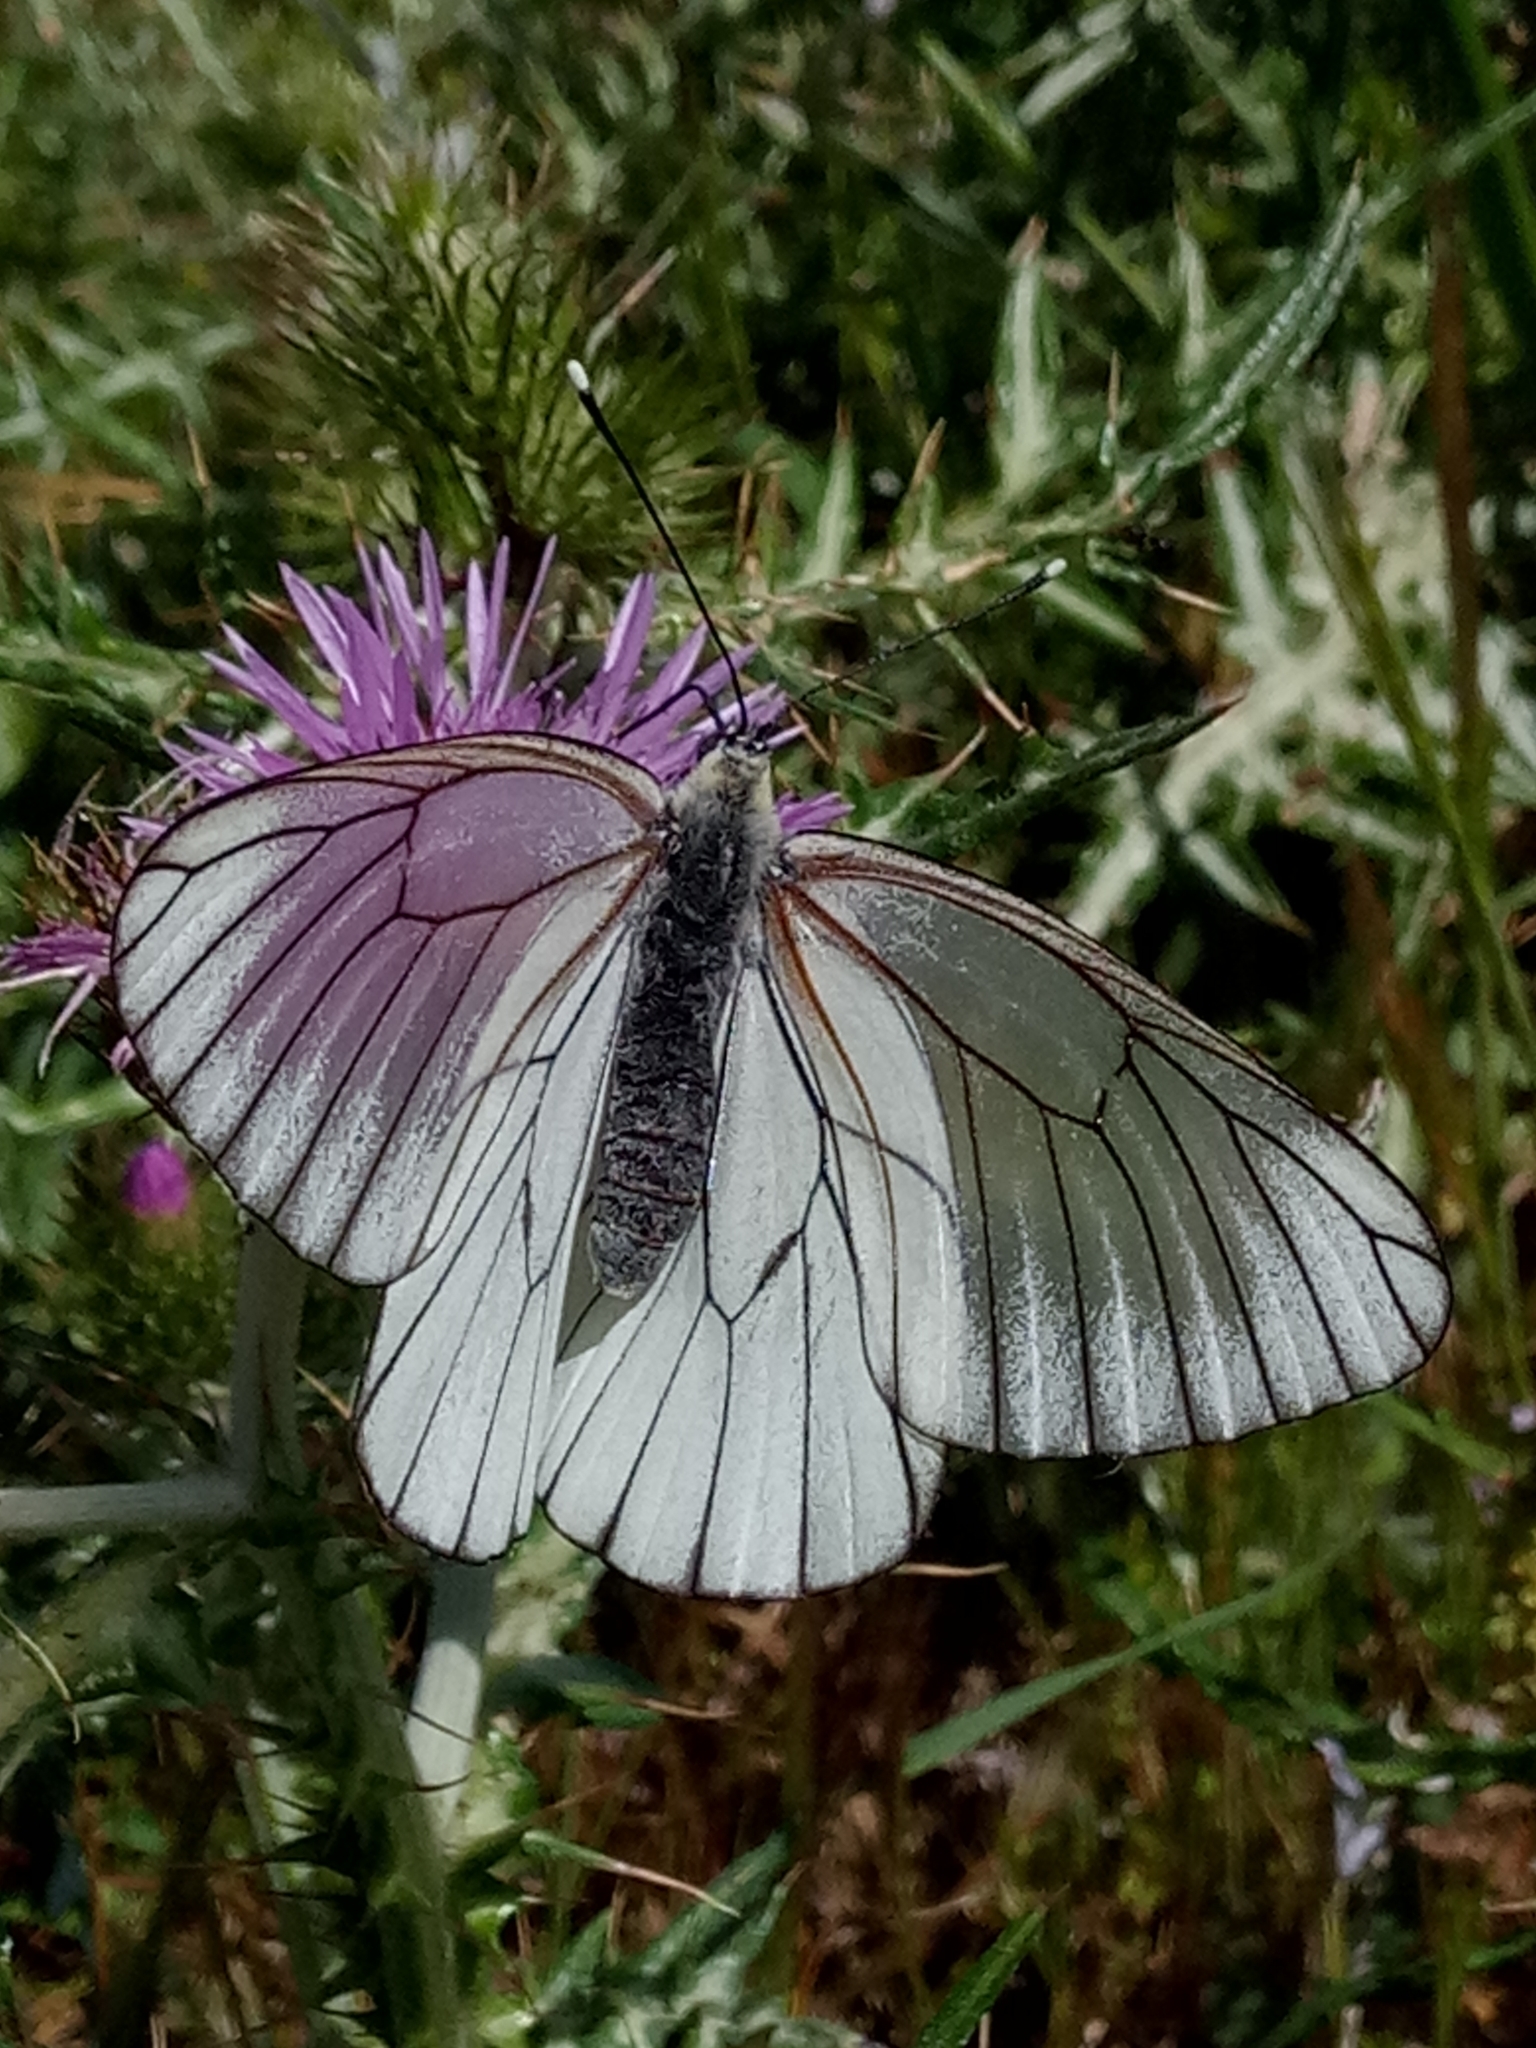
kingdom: Animalia
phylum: Arthropoda
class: Insecta
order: Lepidoptera
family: Pieridae
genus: Aporia
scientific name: Aporia crataegi
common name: Black-veined white
